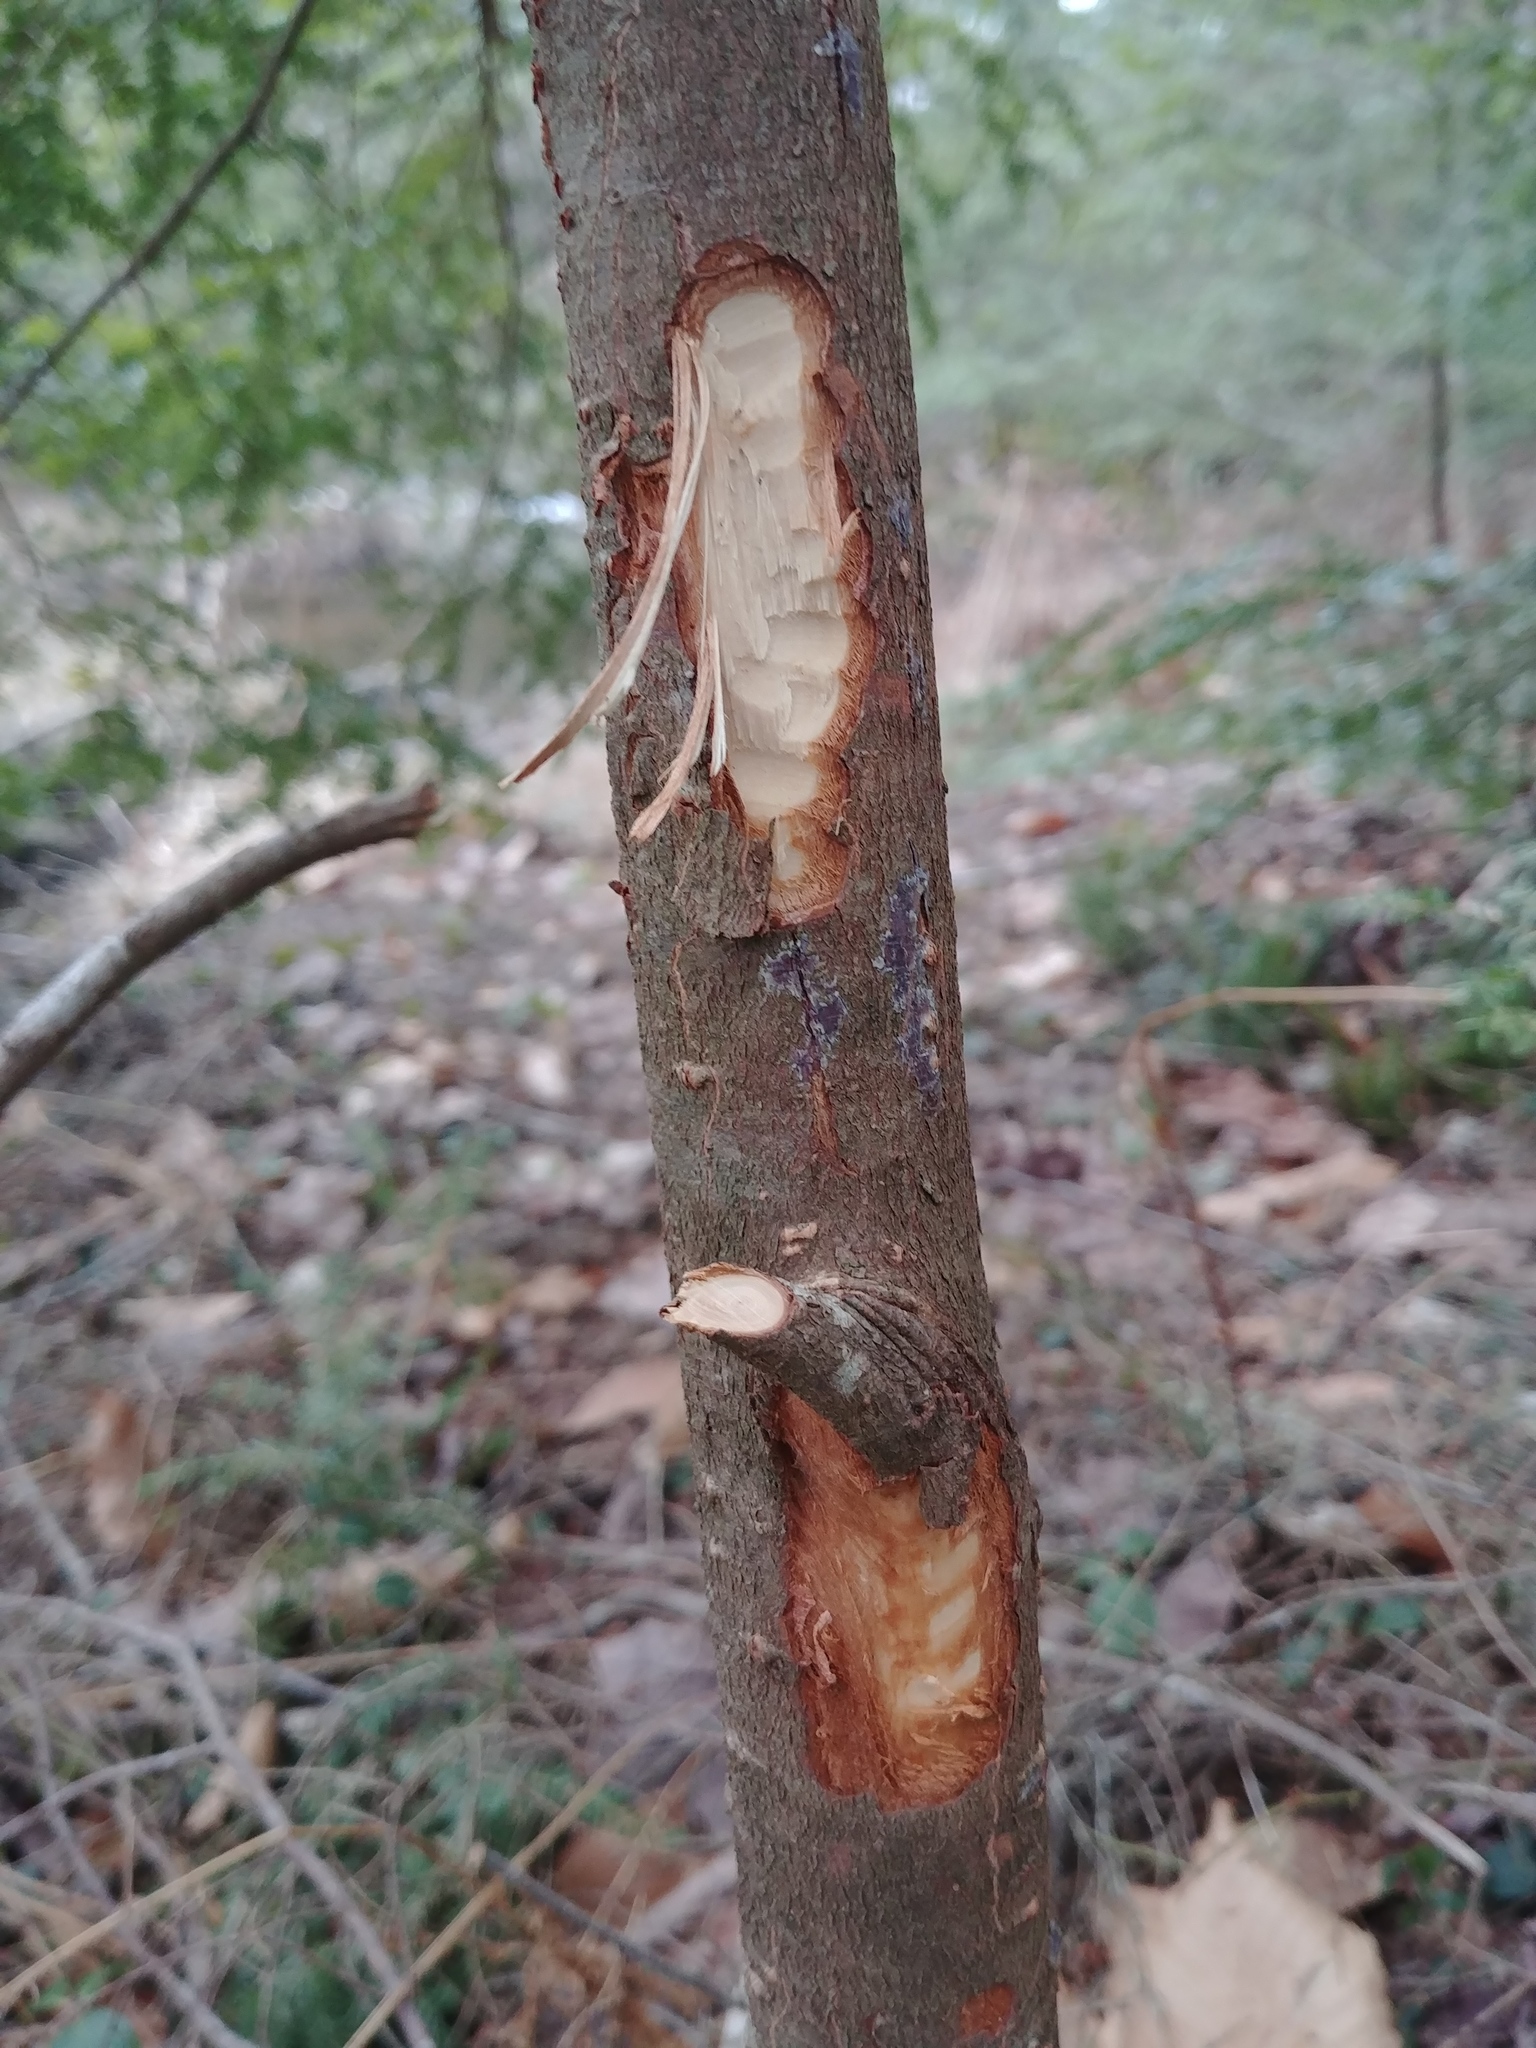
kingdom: Animalia
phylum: Chordata
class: Mammalia
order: Rodentia
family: Castoridae
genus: Castor
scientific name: Castor canadensis
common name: American beaver
